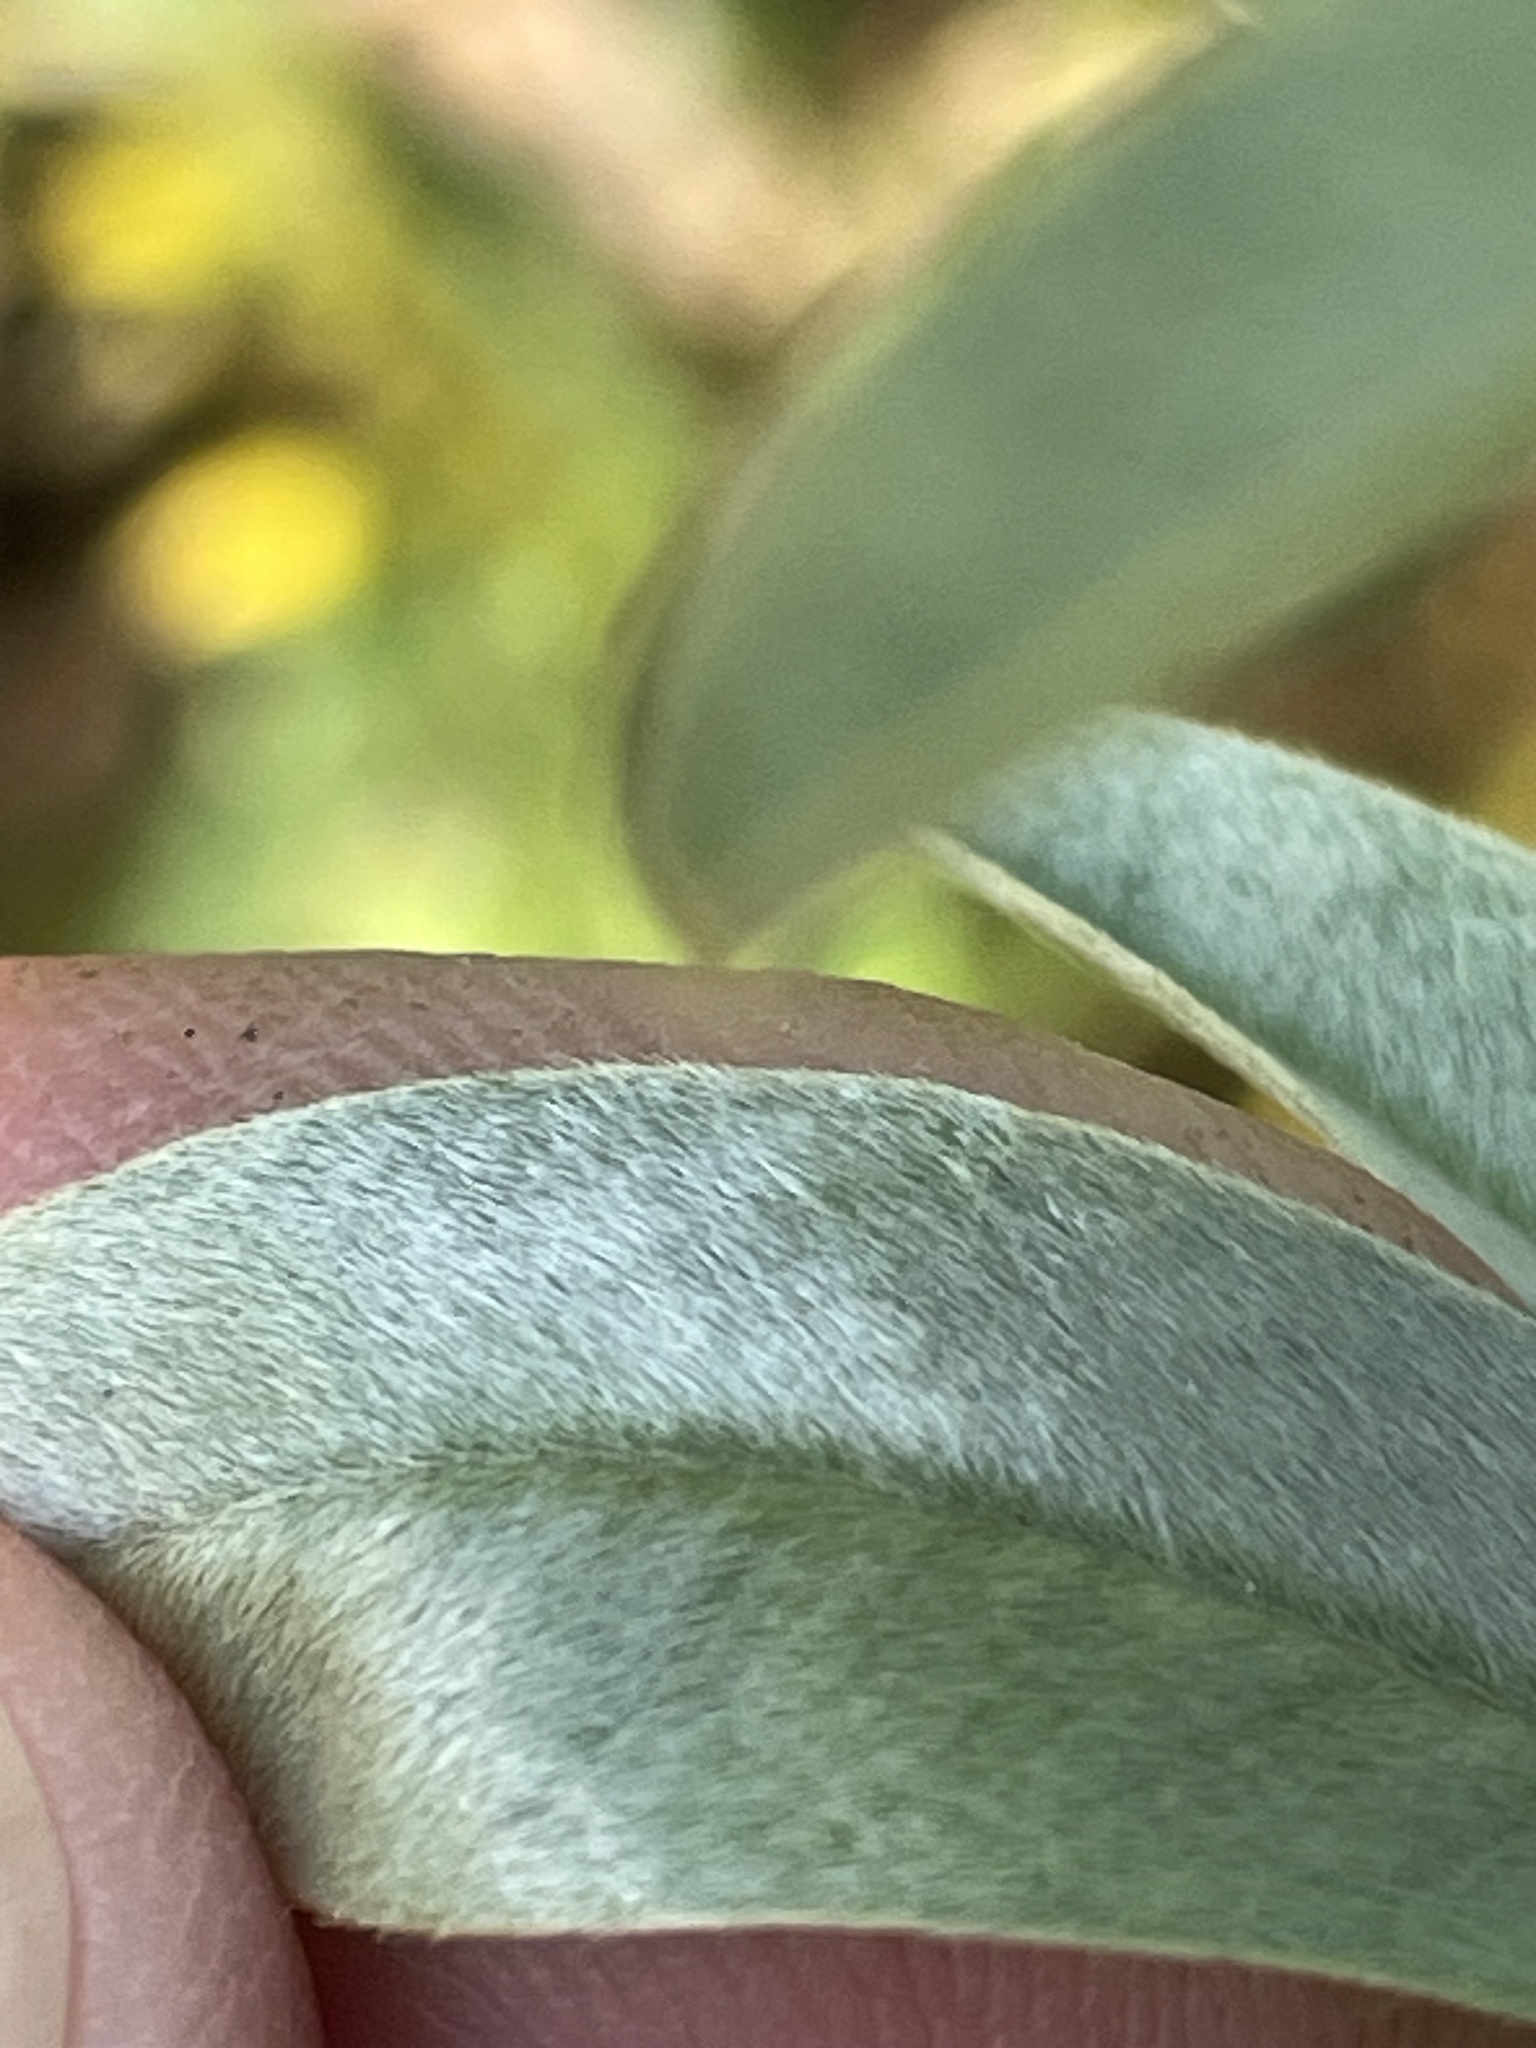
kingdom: Plantae
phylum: Tracheophyta
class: Magnoliopsida
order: Fabales
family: Fabaceae
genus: Lespedeza
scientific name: Lespedeza capitata
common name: Dusty clover
